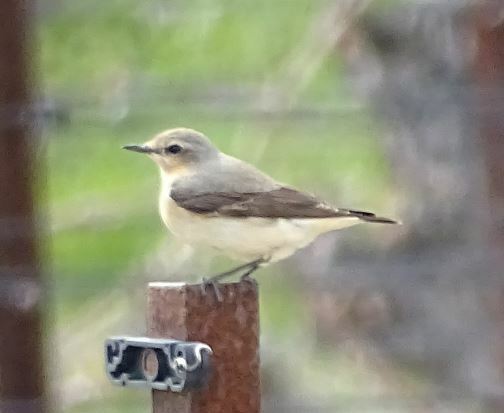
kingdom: Animalia
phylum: Chordata
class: Aves
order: Passeriformes
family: Muscicapidae
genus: Oenanthe
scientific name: Oenanthe oenanthe
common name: Northern wheatear
